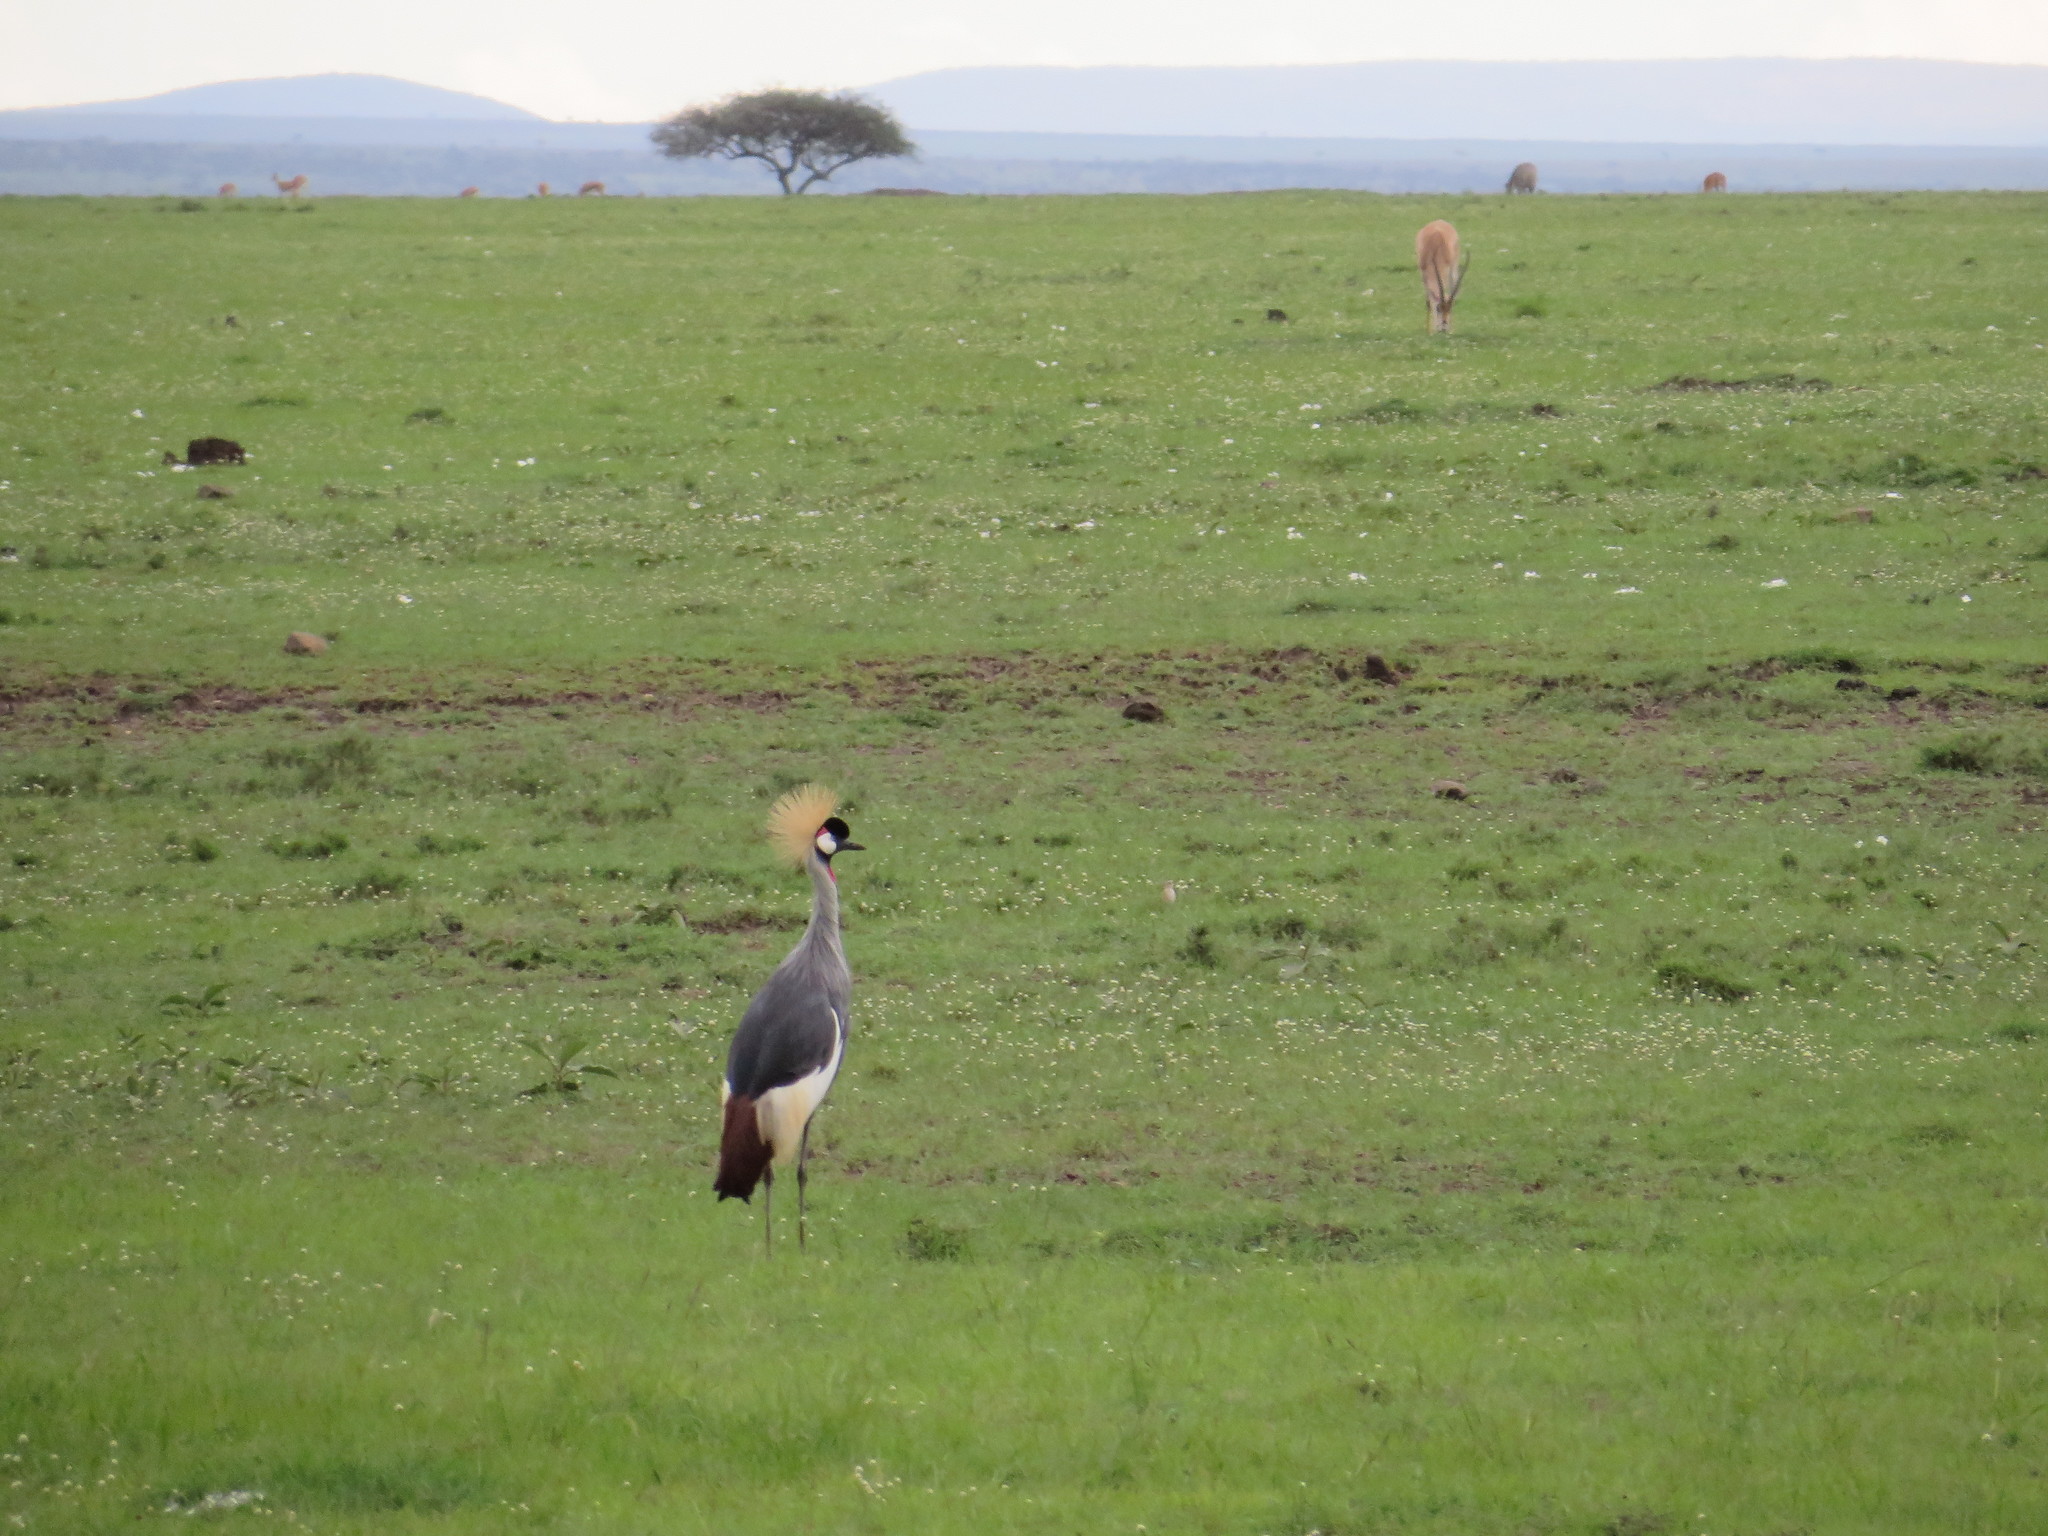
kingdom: Animalia
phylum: Chordata
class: Aves
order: Gruiformes
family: Gruidae
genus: Balearica
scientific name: Balearica regulorum
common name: Grey crowned crane
